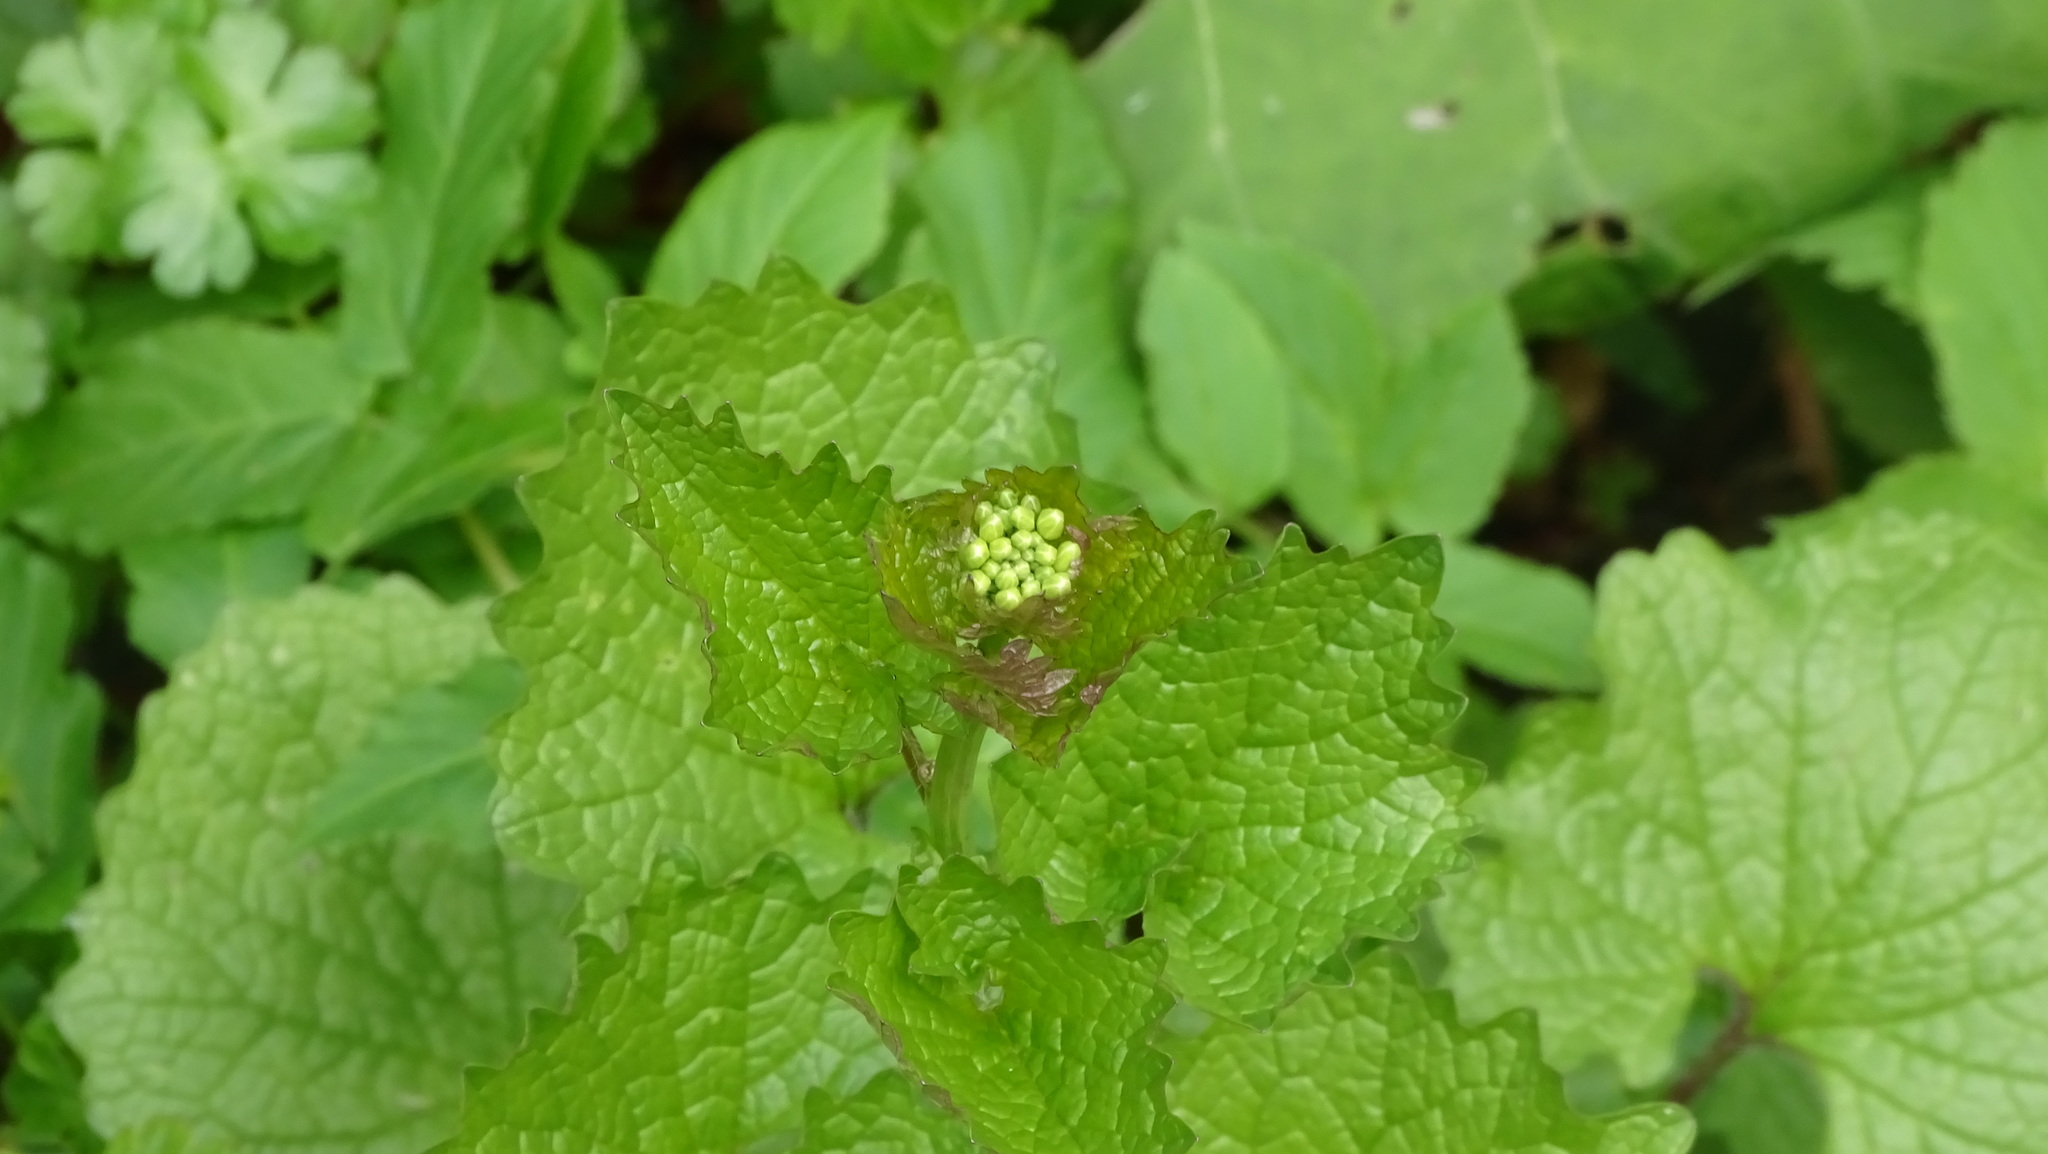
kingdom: Plantae
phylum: Tracheophyta
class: Magnoliopsida
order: Brassicales
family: Brassicaceae
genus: Alliaria
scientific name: Alliaria petiolata
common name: Garlic mustard
